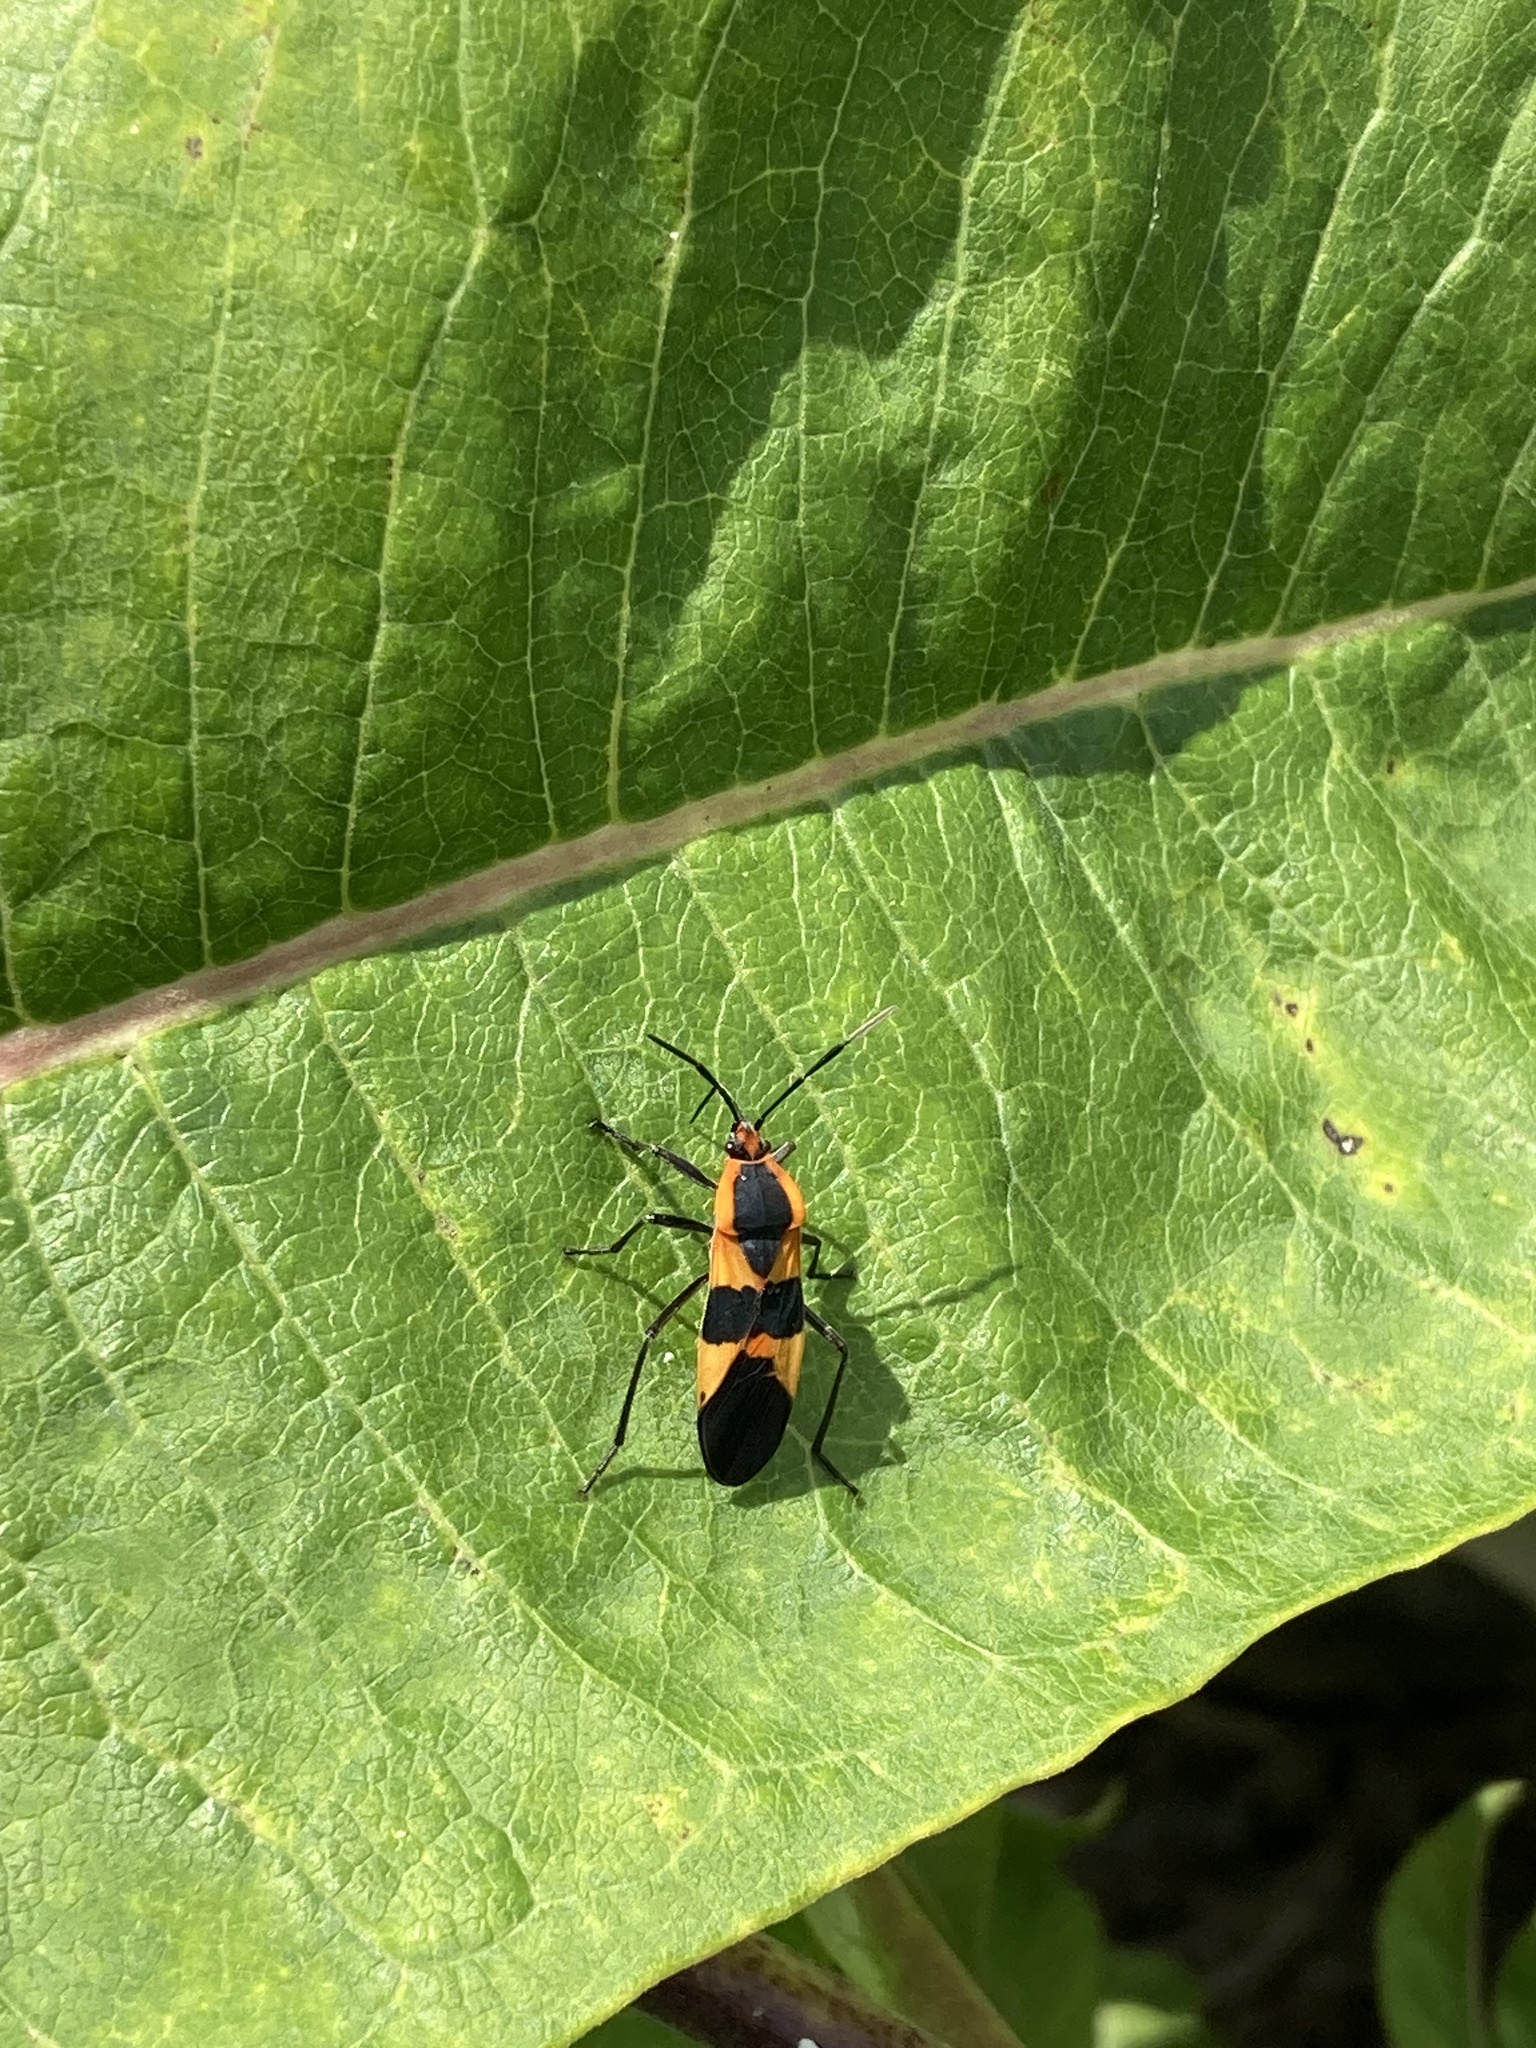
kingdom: Animalia
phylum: Arthropoda
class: Insecta
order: Hemiptera
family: Lygaeidae
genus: Oncopeltus
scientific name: Oncopeltus fasciatus
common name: Large milkweed bug
